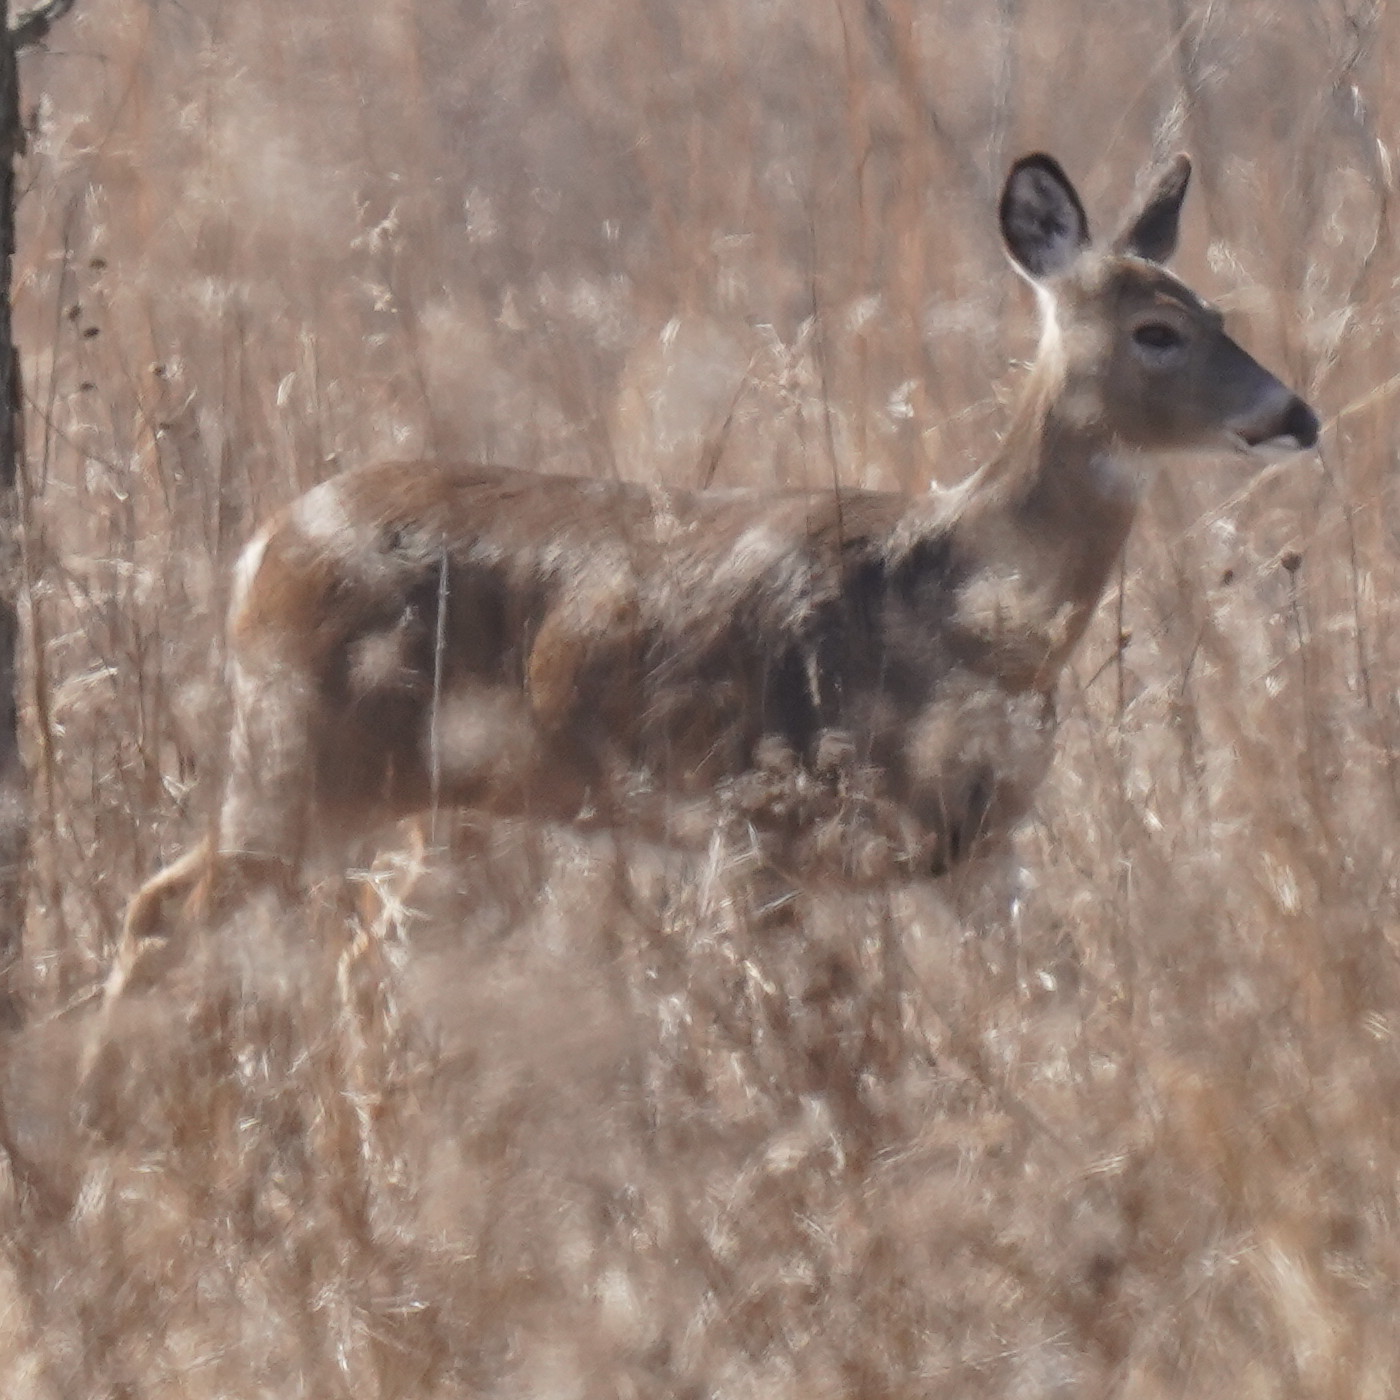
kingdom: Animalia
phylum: Chordata
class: Mammalia
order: Artiodactyla
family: Cervidae
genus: Odocoileus
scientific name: Odocoileus virginianus
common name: White-tailed deer
